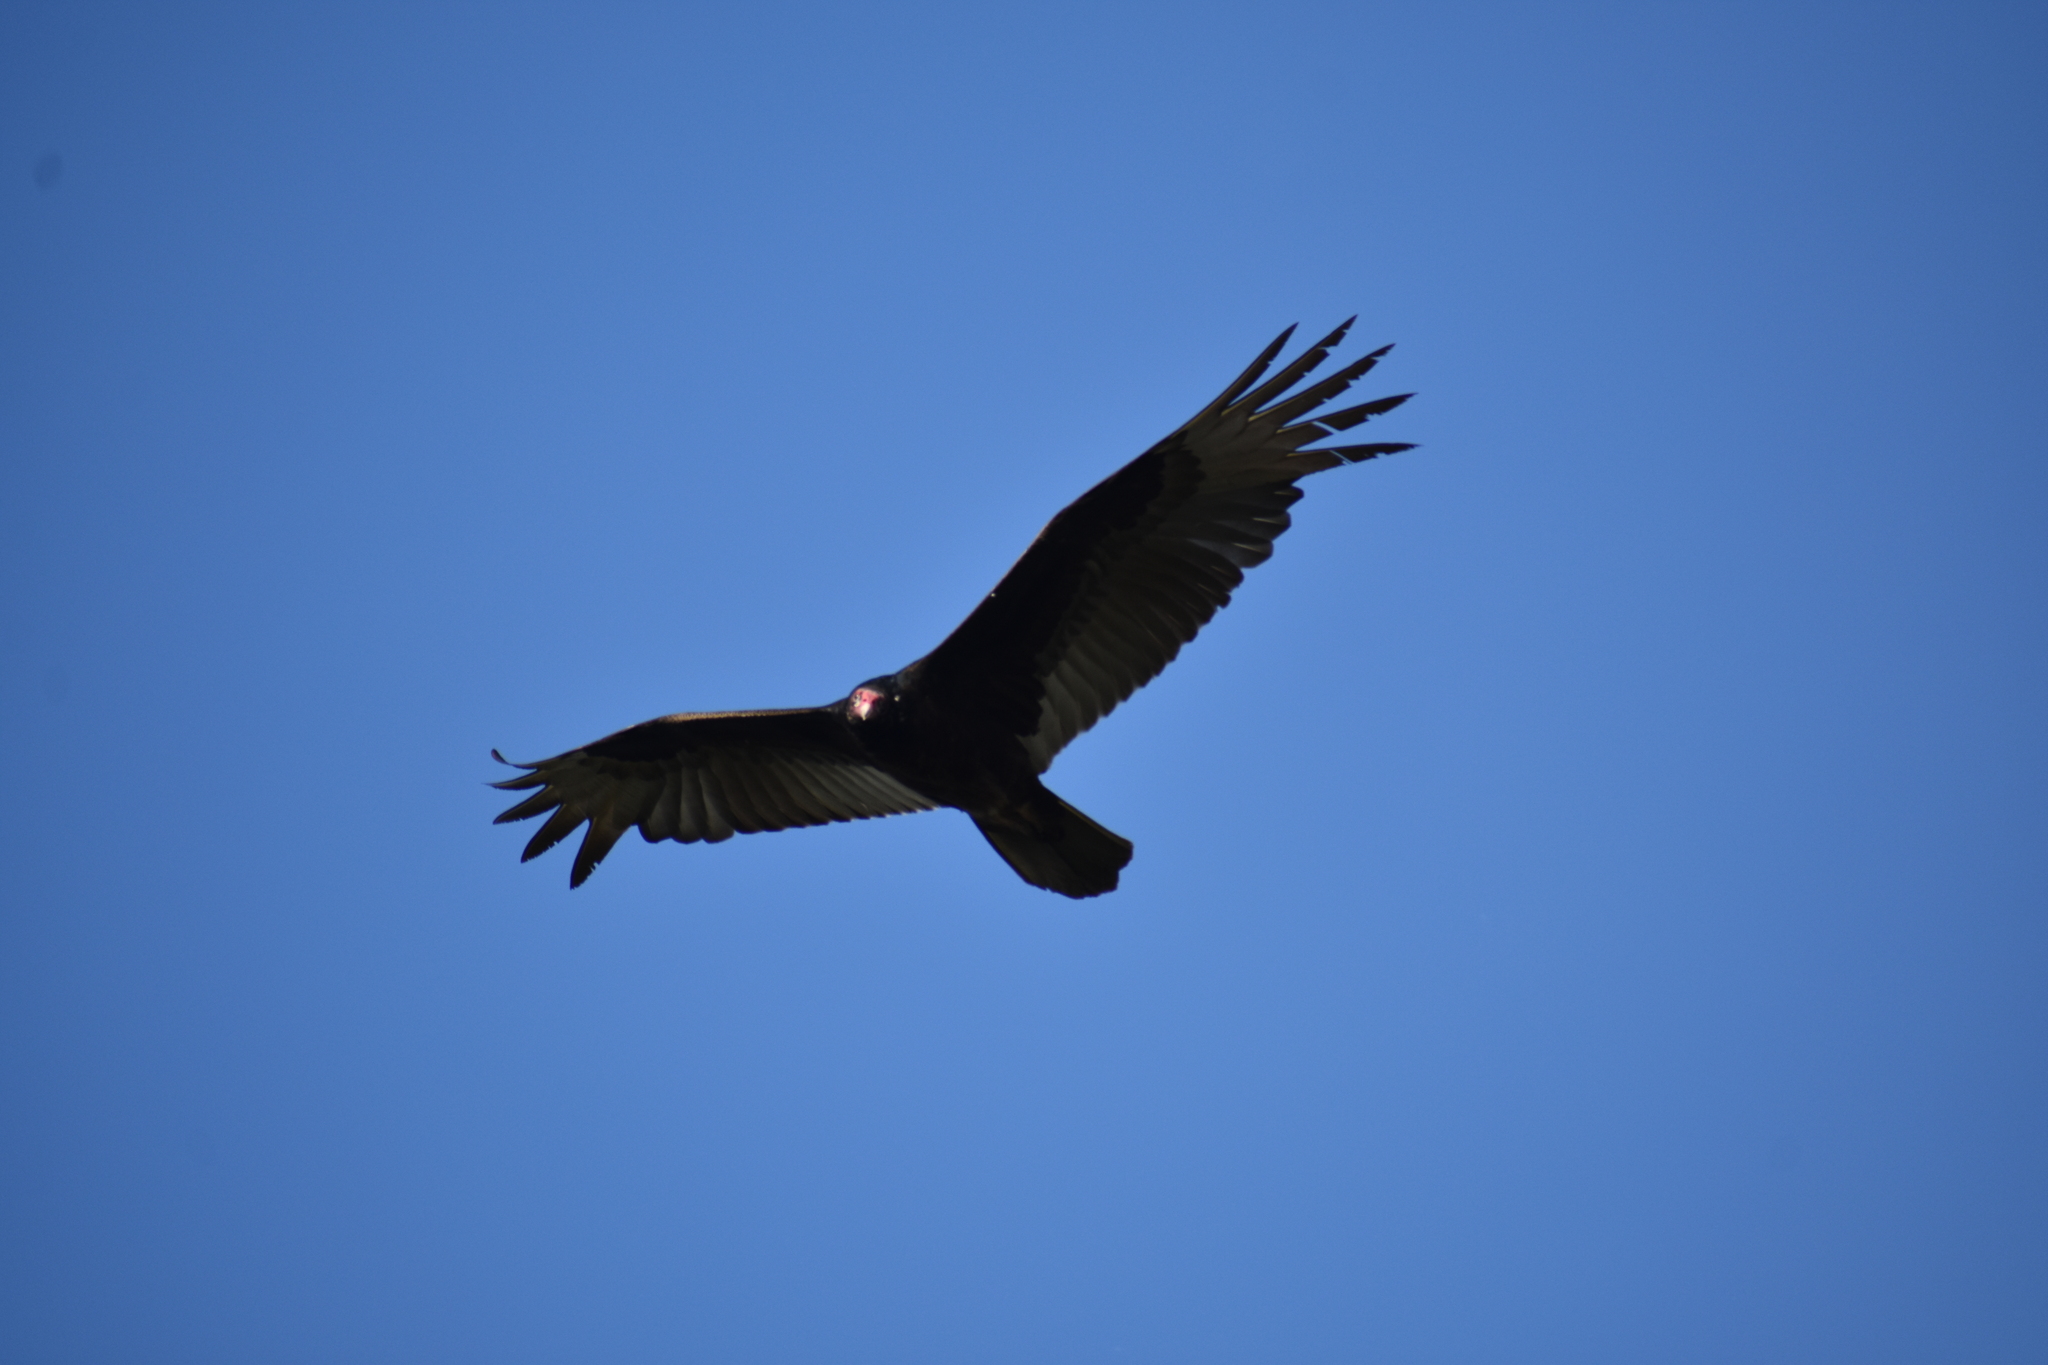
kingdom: Animalia
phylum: Chordata
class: Aves
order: Accipitriformes
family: Cathartidae
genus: Cathartes
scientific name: Cathartes aura
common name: Turkey vulture
